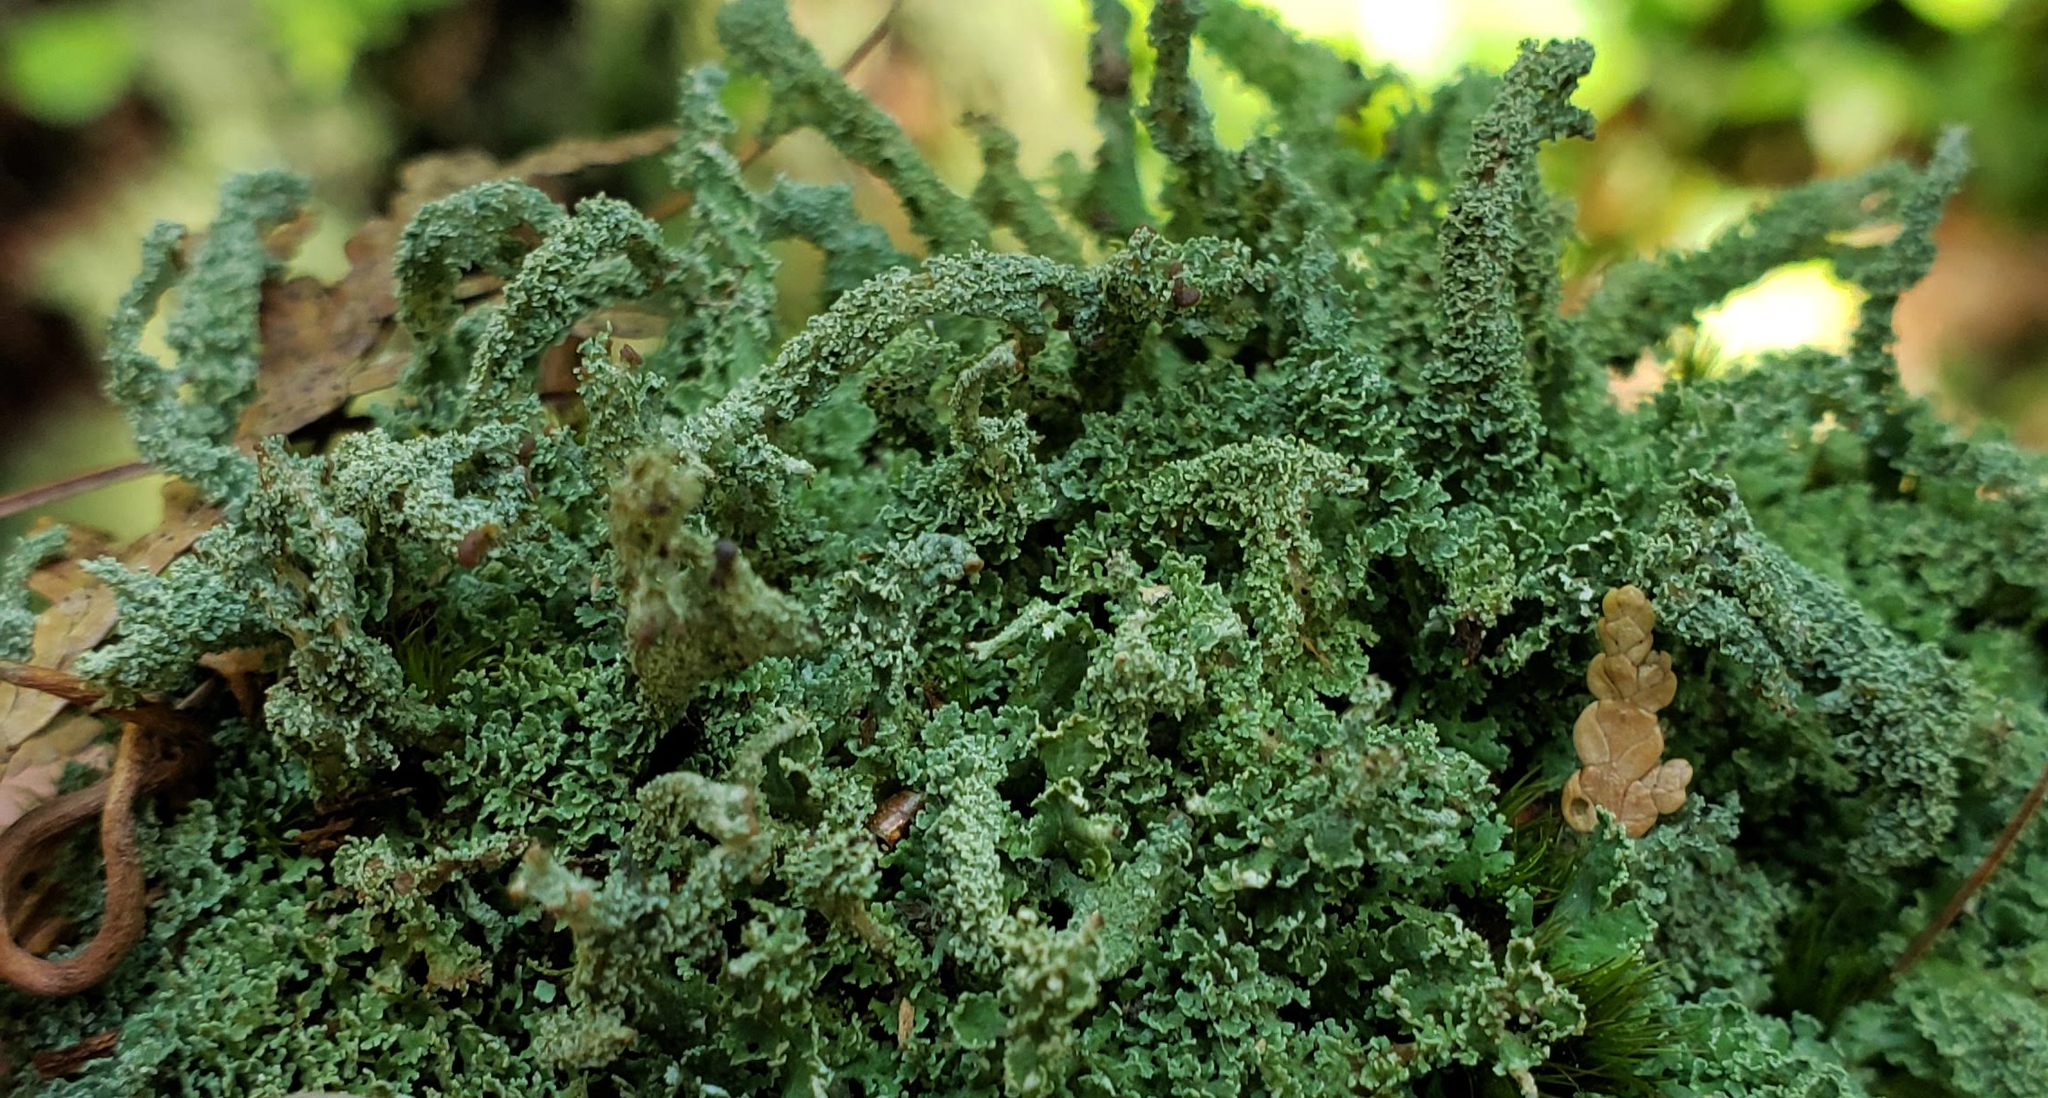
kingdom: Fungi
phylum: Ascomycota
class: Lecanoromycetes
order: Lecanorales
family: Cladoniaceae
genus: Cladonia
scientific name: Cladonia squamosa
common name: Dragon horn
